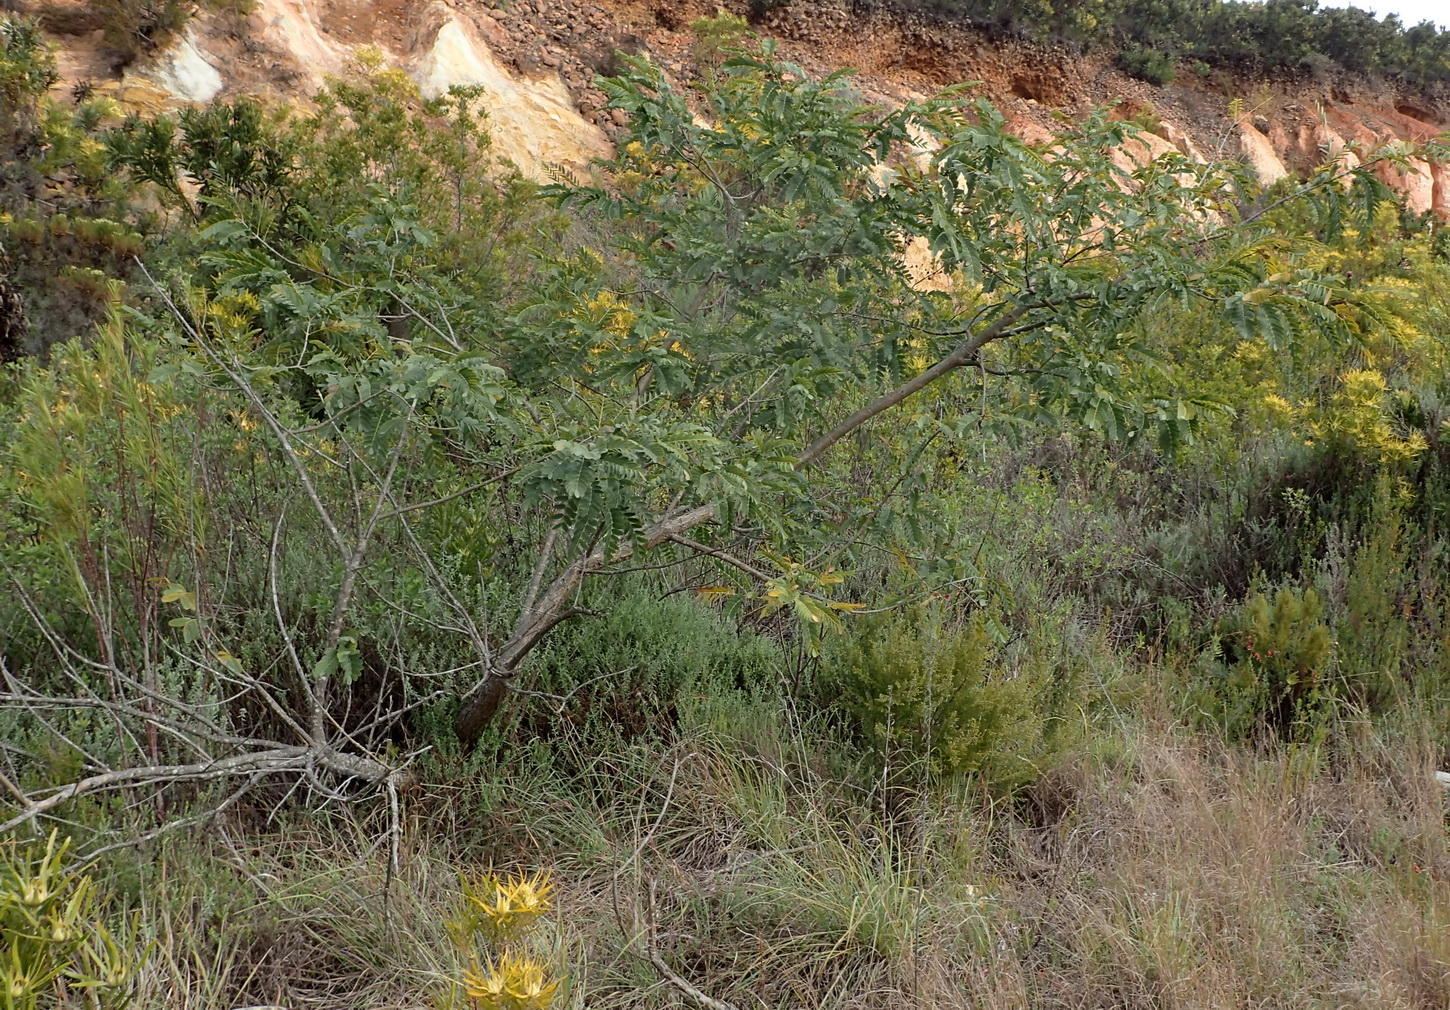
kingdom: Plantae
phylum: Tracheophyta
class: Magnoliopsida
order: Fabales
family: Fabaceae
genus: Tipuana
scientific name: Tipuana tipu
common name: Tiputree
